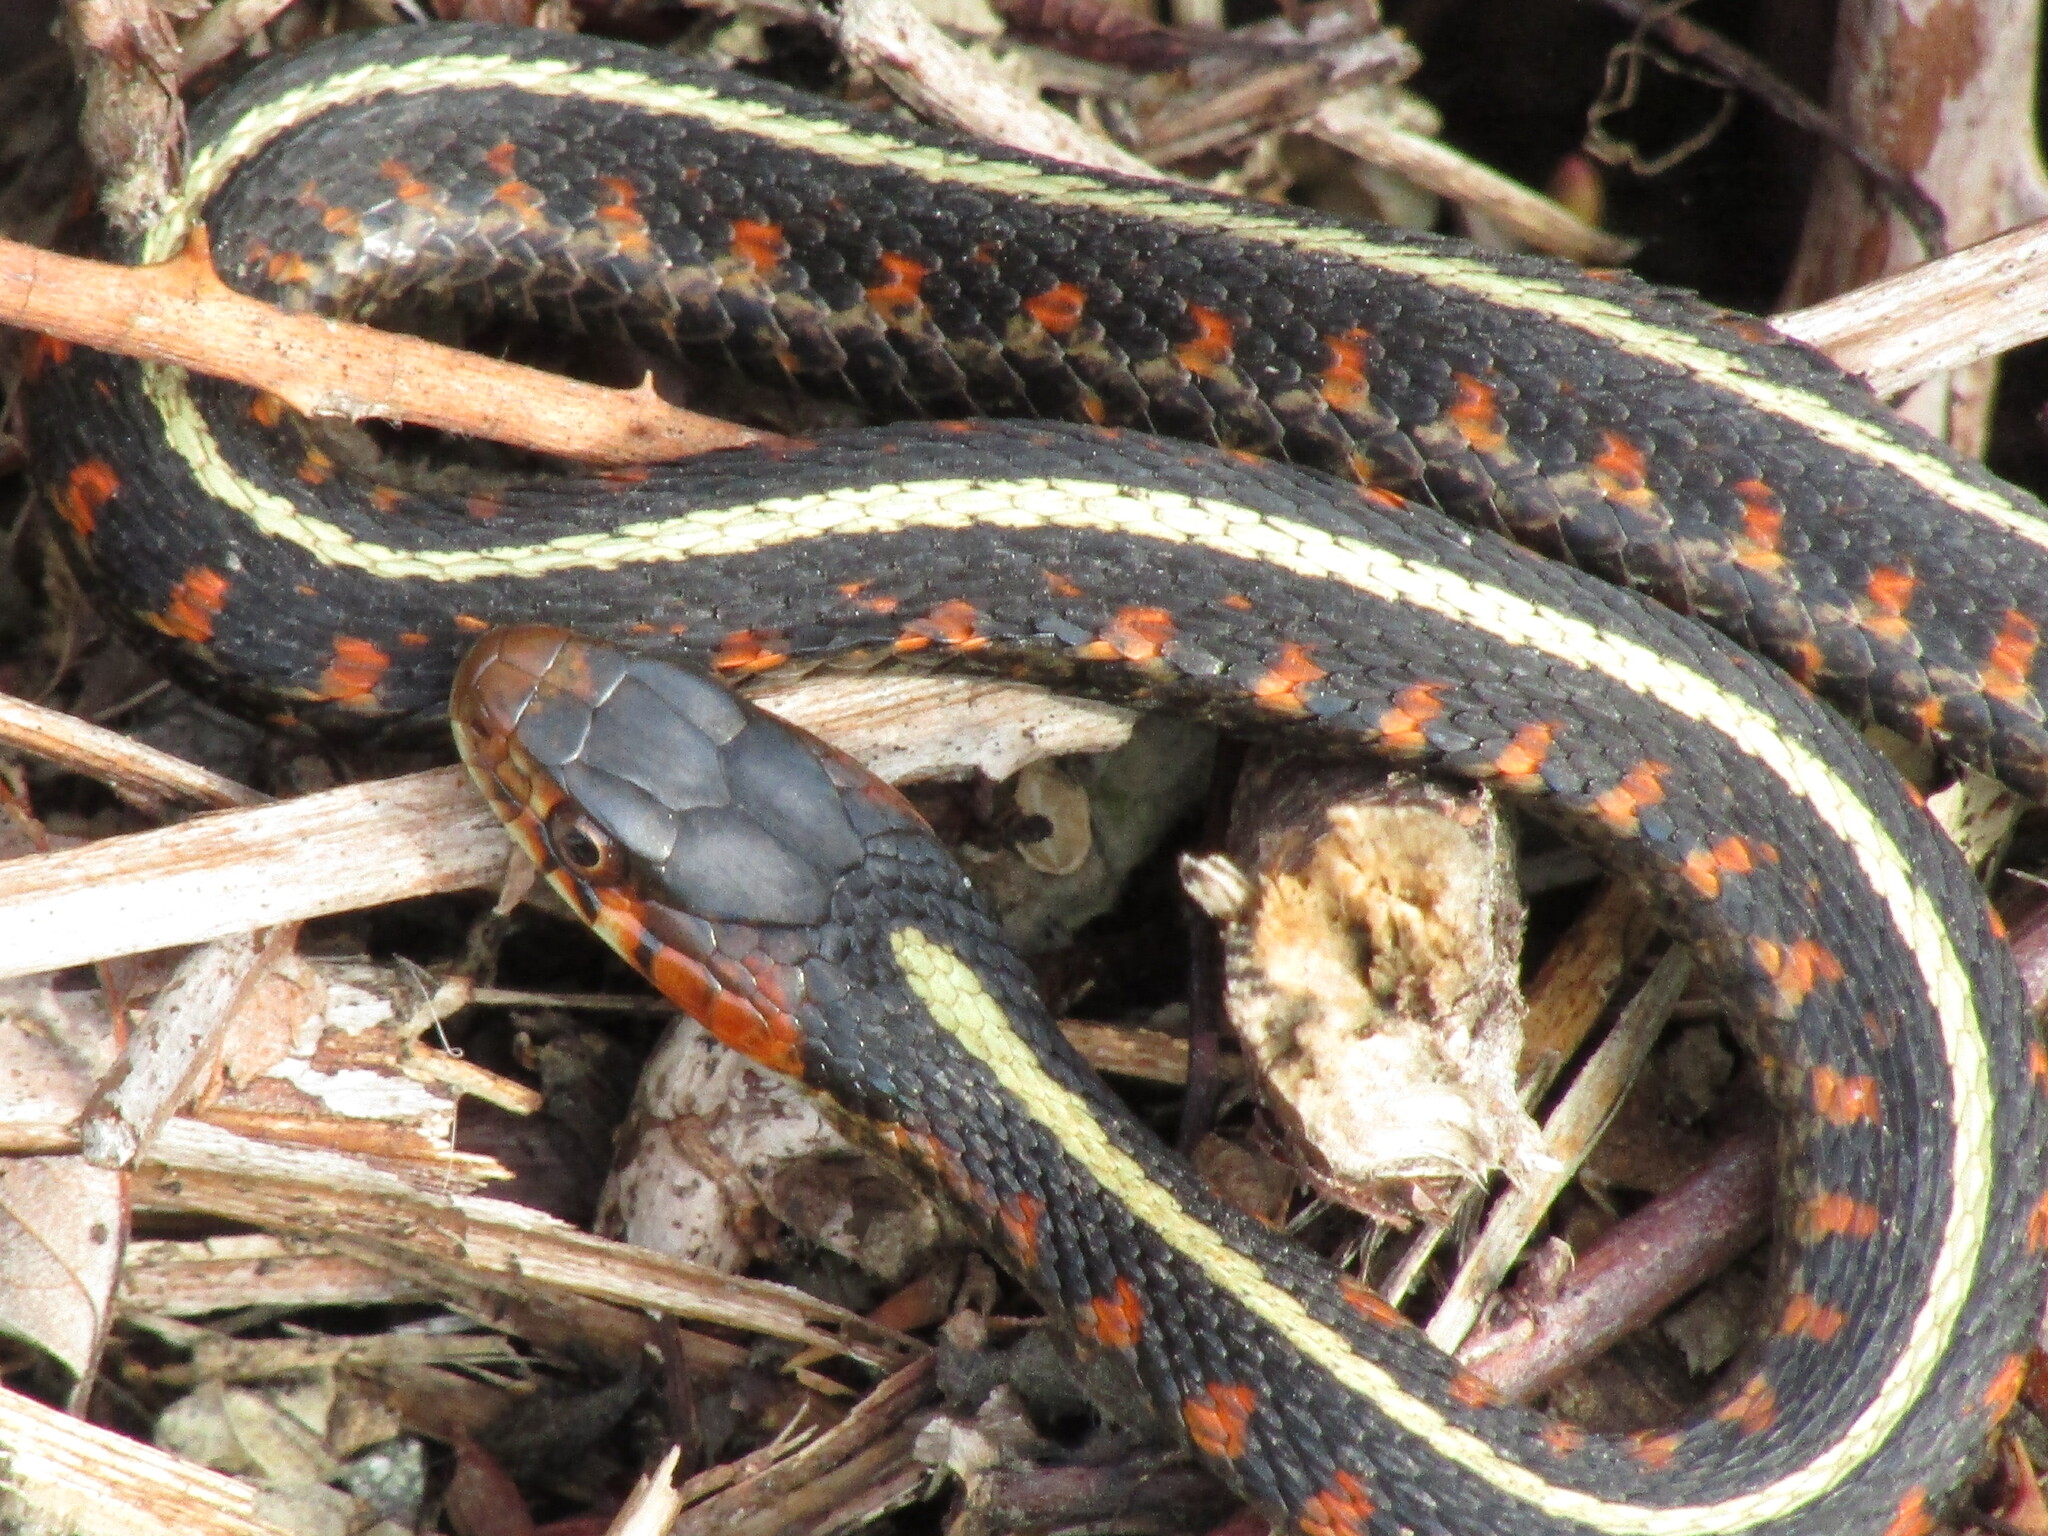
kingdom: Animalia
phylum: Chordata
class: Squamata
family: Colubridae
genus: Thamnophis
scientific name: Thamnophis sirtalis
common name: Common garter snake
